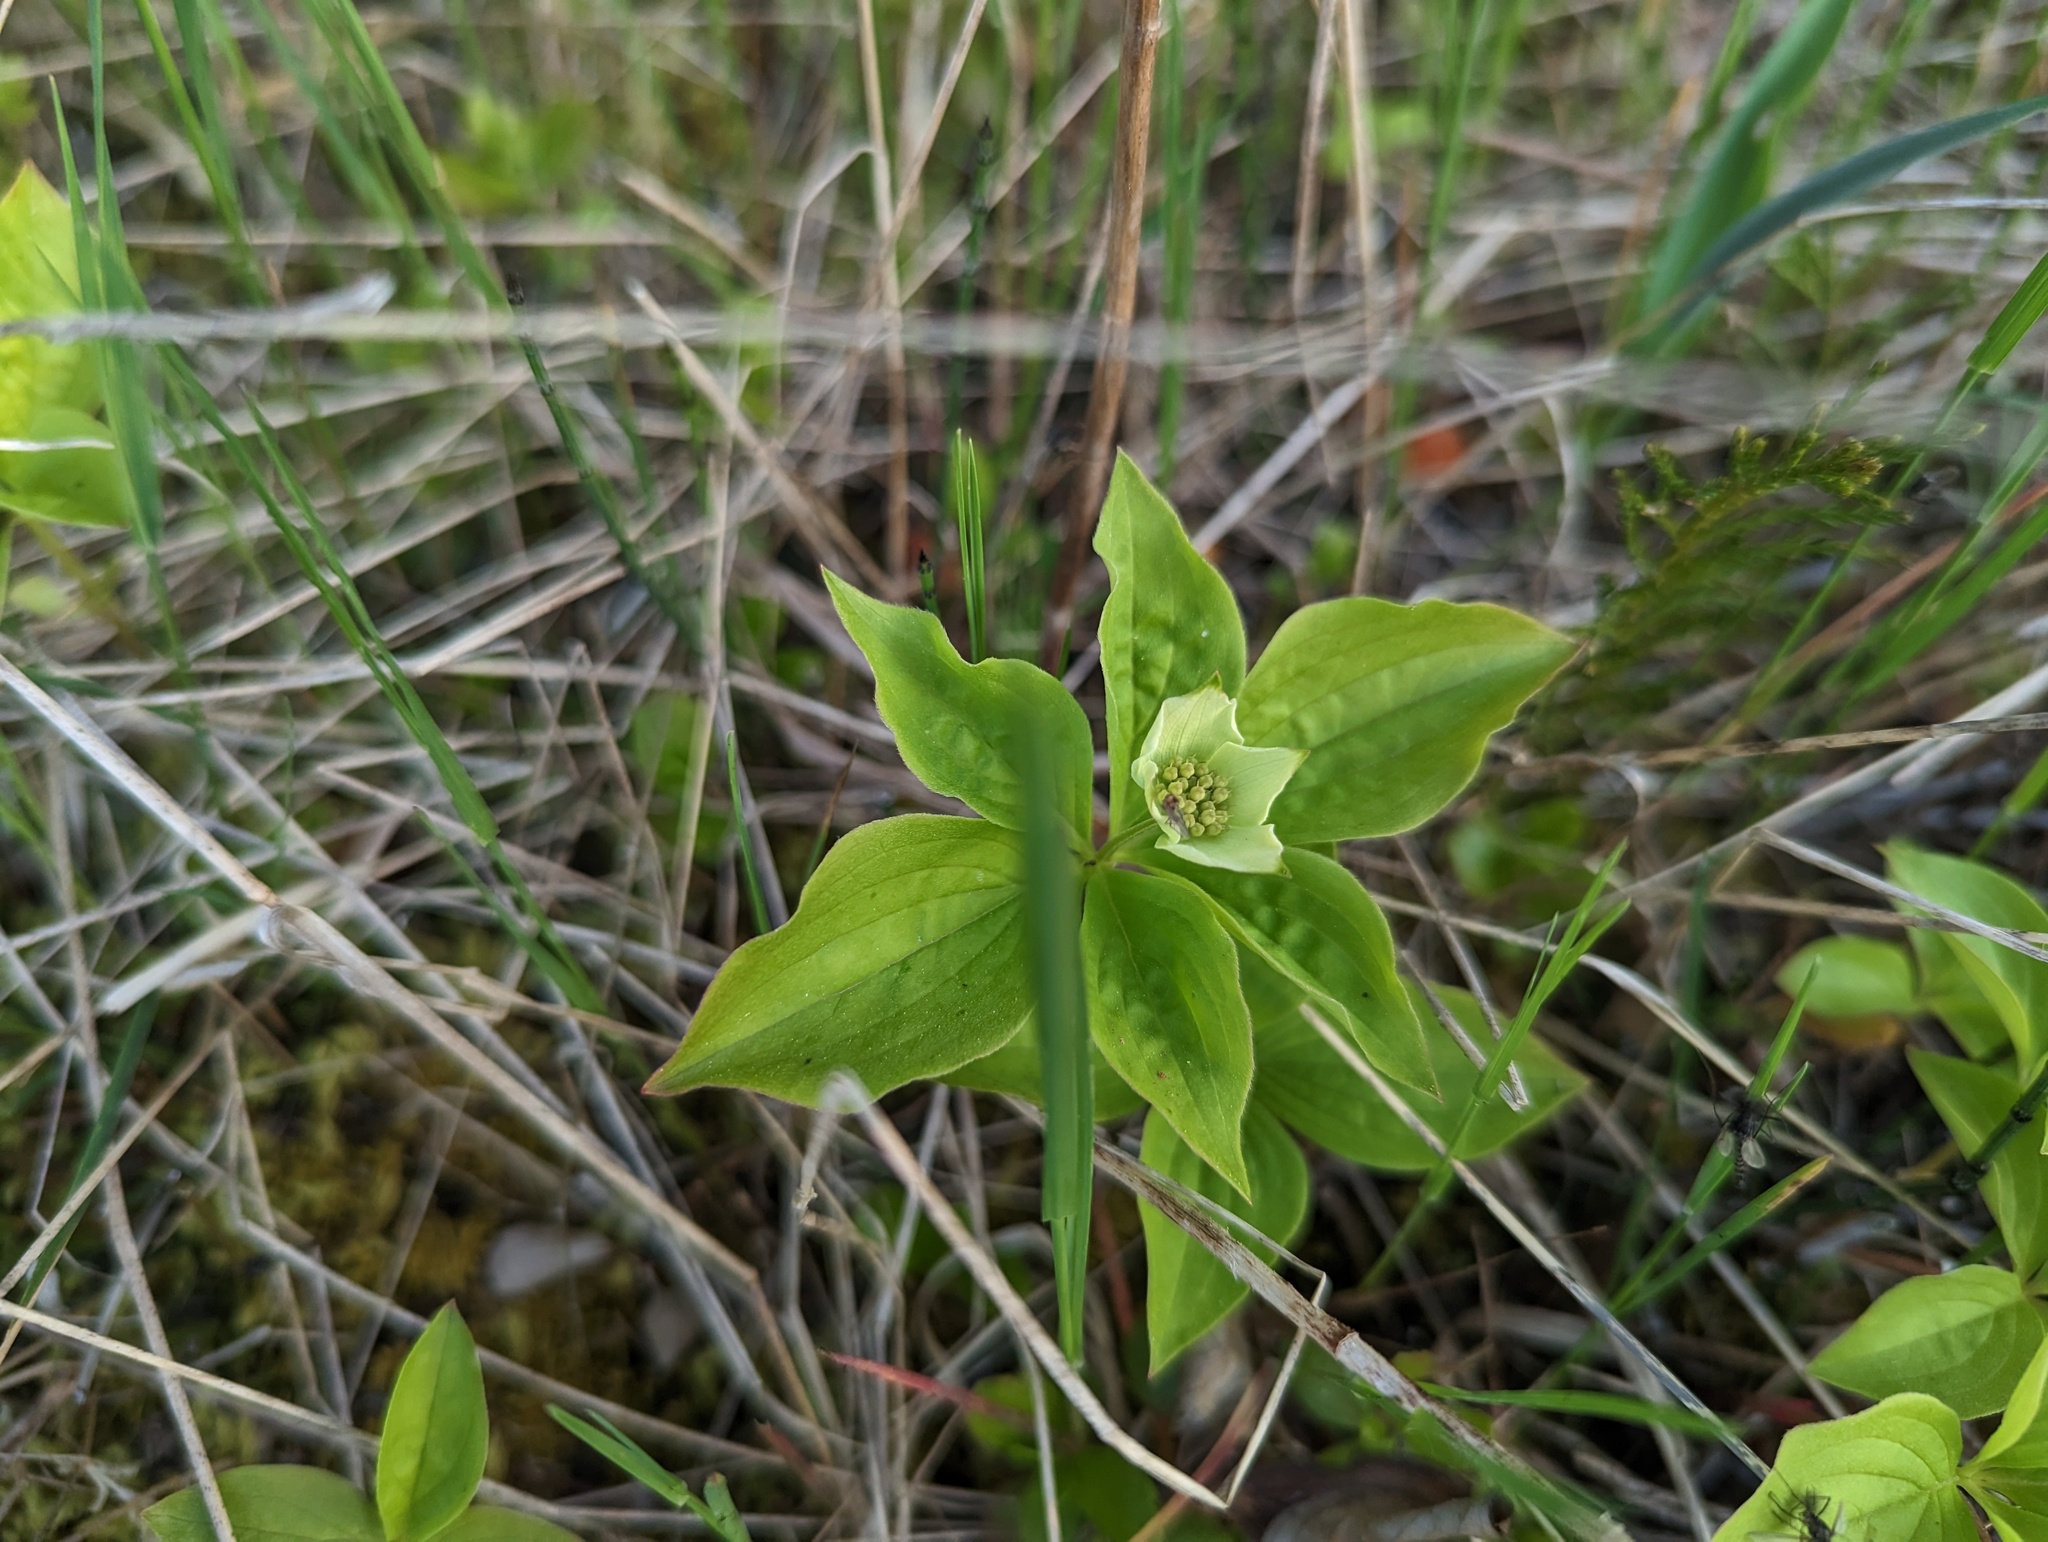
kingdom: Plantae
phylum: Tracheophyta
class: Magnoliopsida
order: Cornales
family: Cornaceae
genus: Cornus
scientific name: Cornus canadensis
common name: Creeping dogwood
